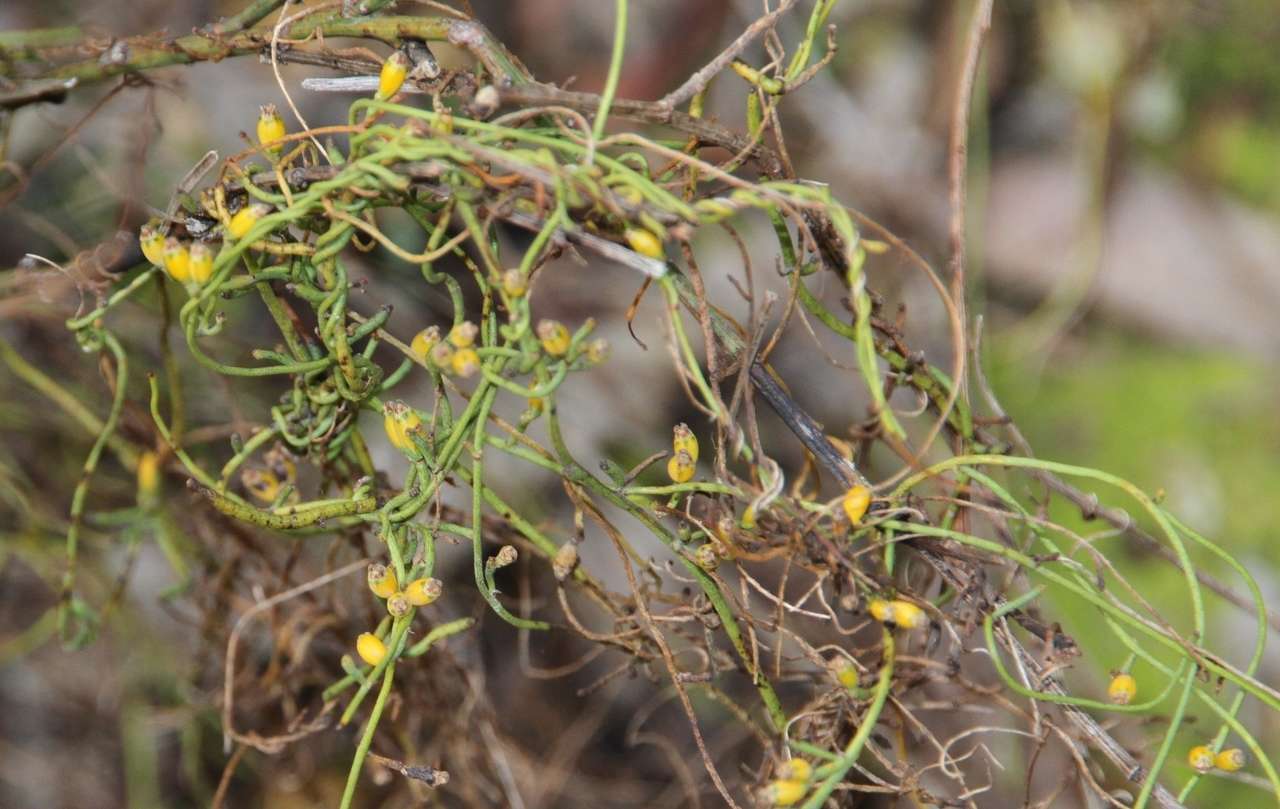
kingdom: Plantae
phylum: Tracheophyta
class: Magnoliopsida
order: Laurales
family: Lauraceae
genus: Cassytha
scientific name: Cassytha glabella
